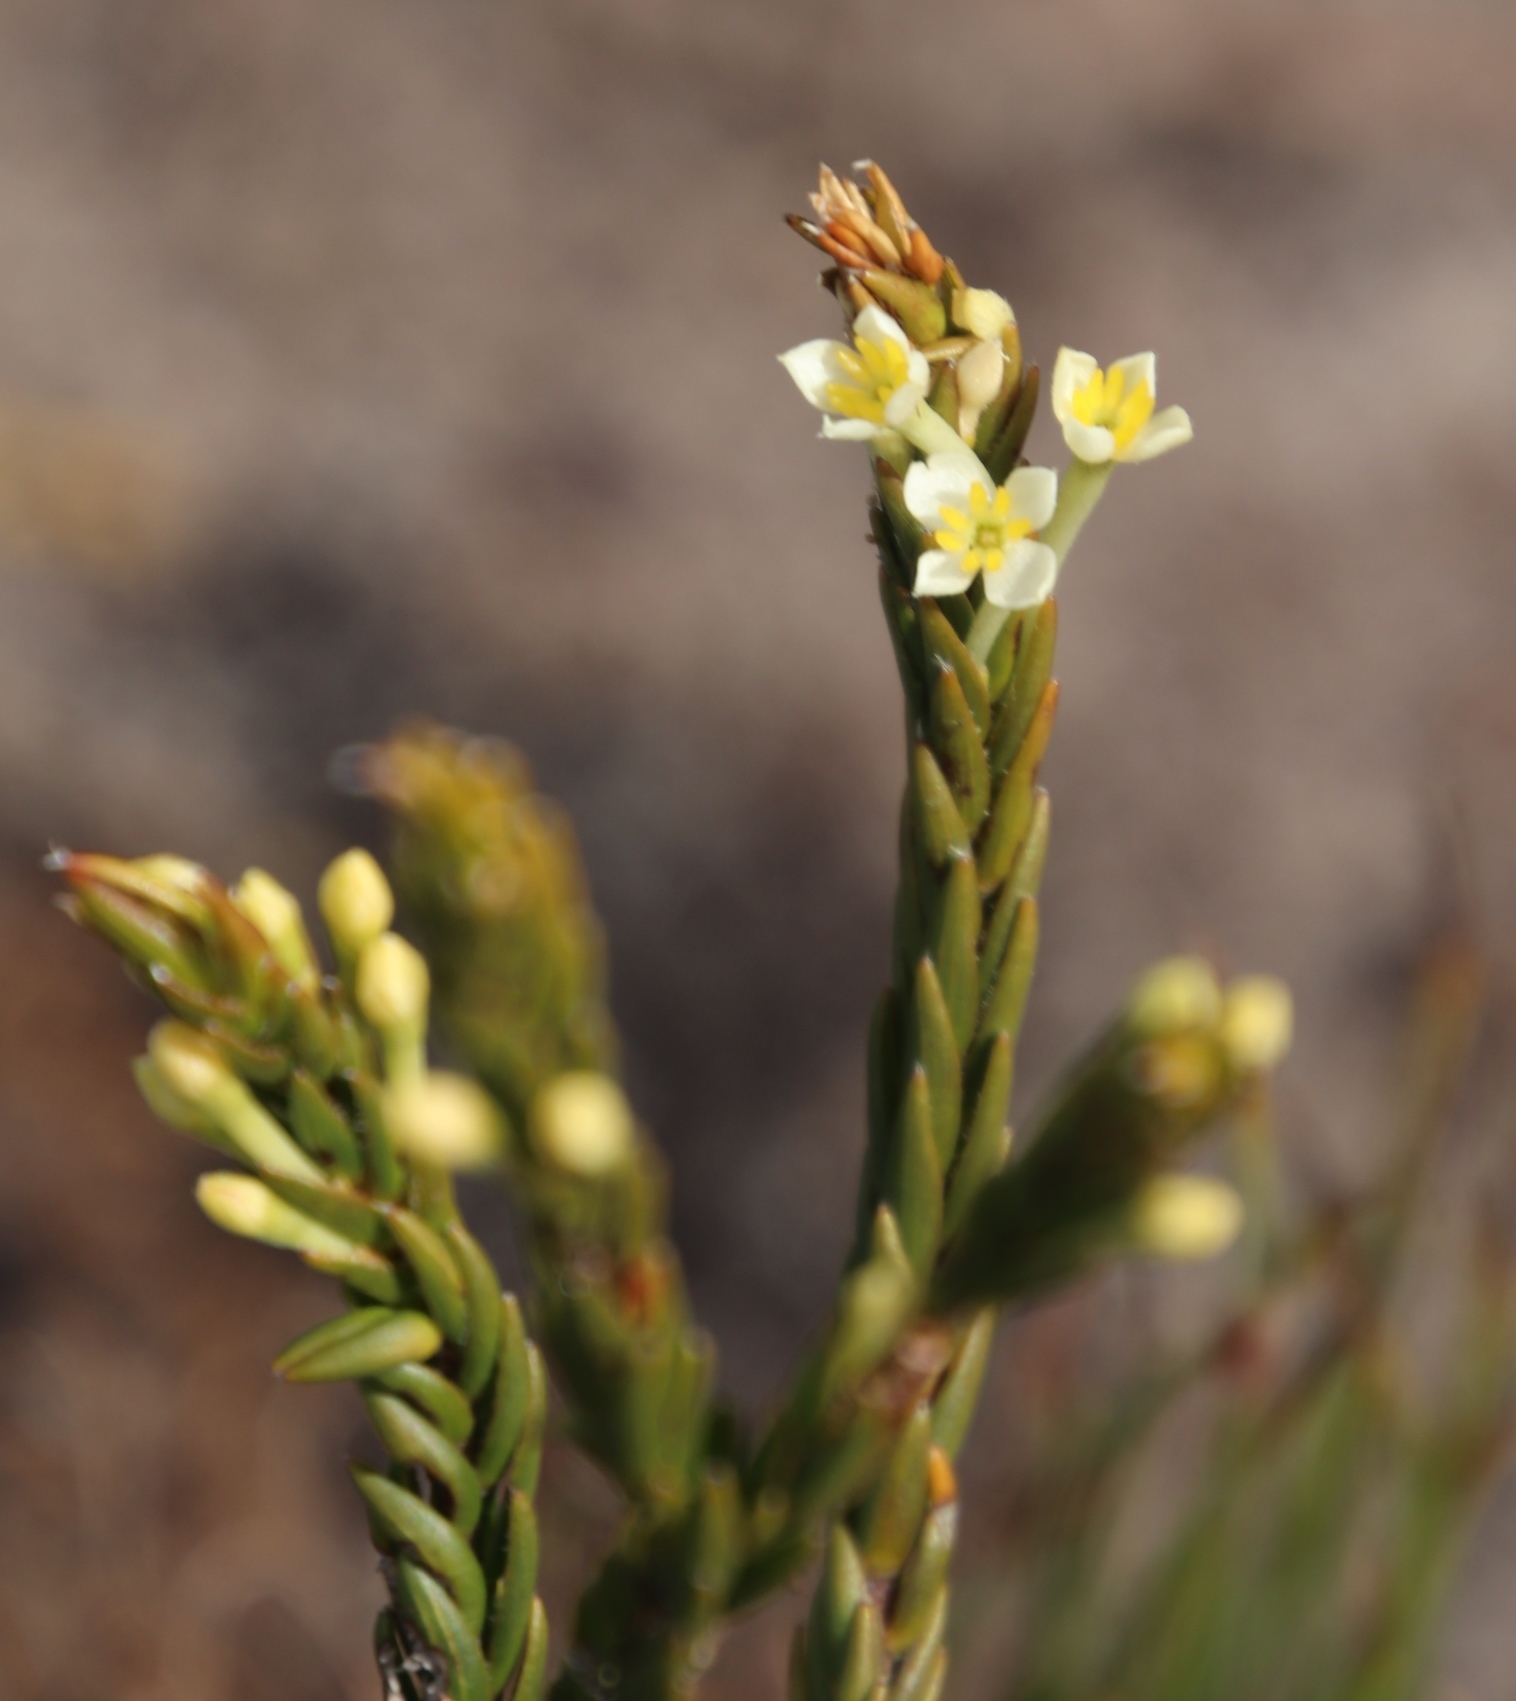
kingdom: Plantae
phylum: Tracheophyta
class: Magnoliopsida
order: Malvales
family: Thymelaeaceae
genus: Struthiola
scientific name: Struthiola ciliata
